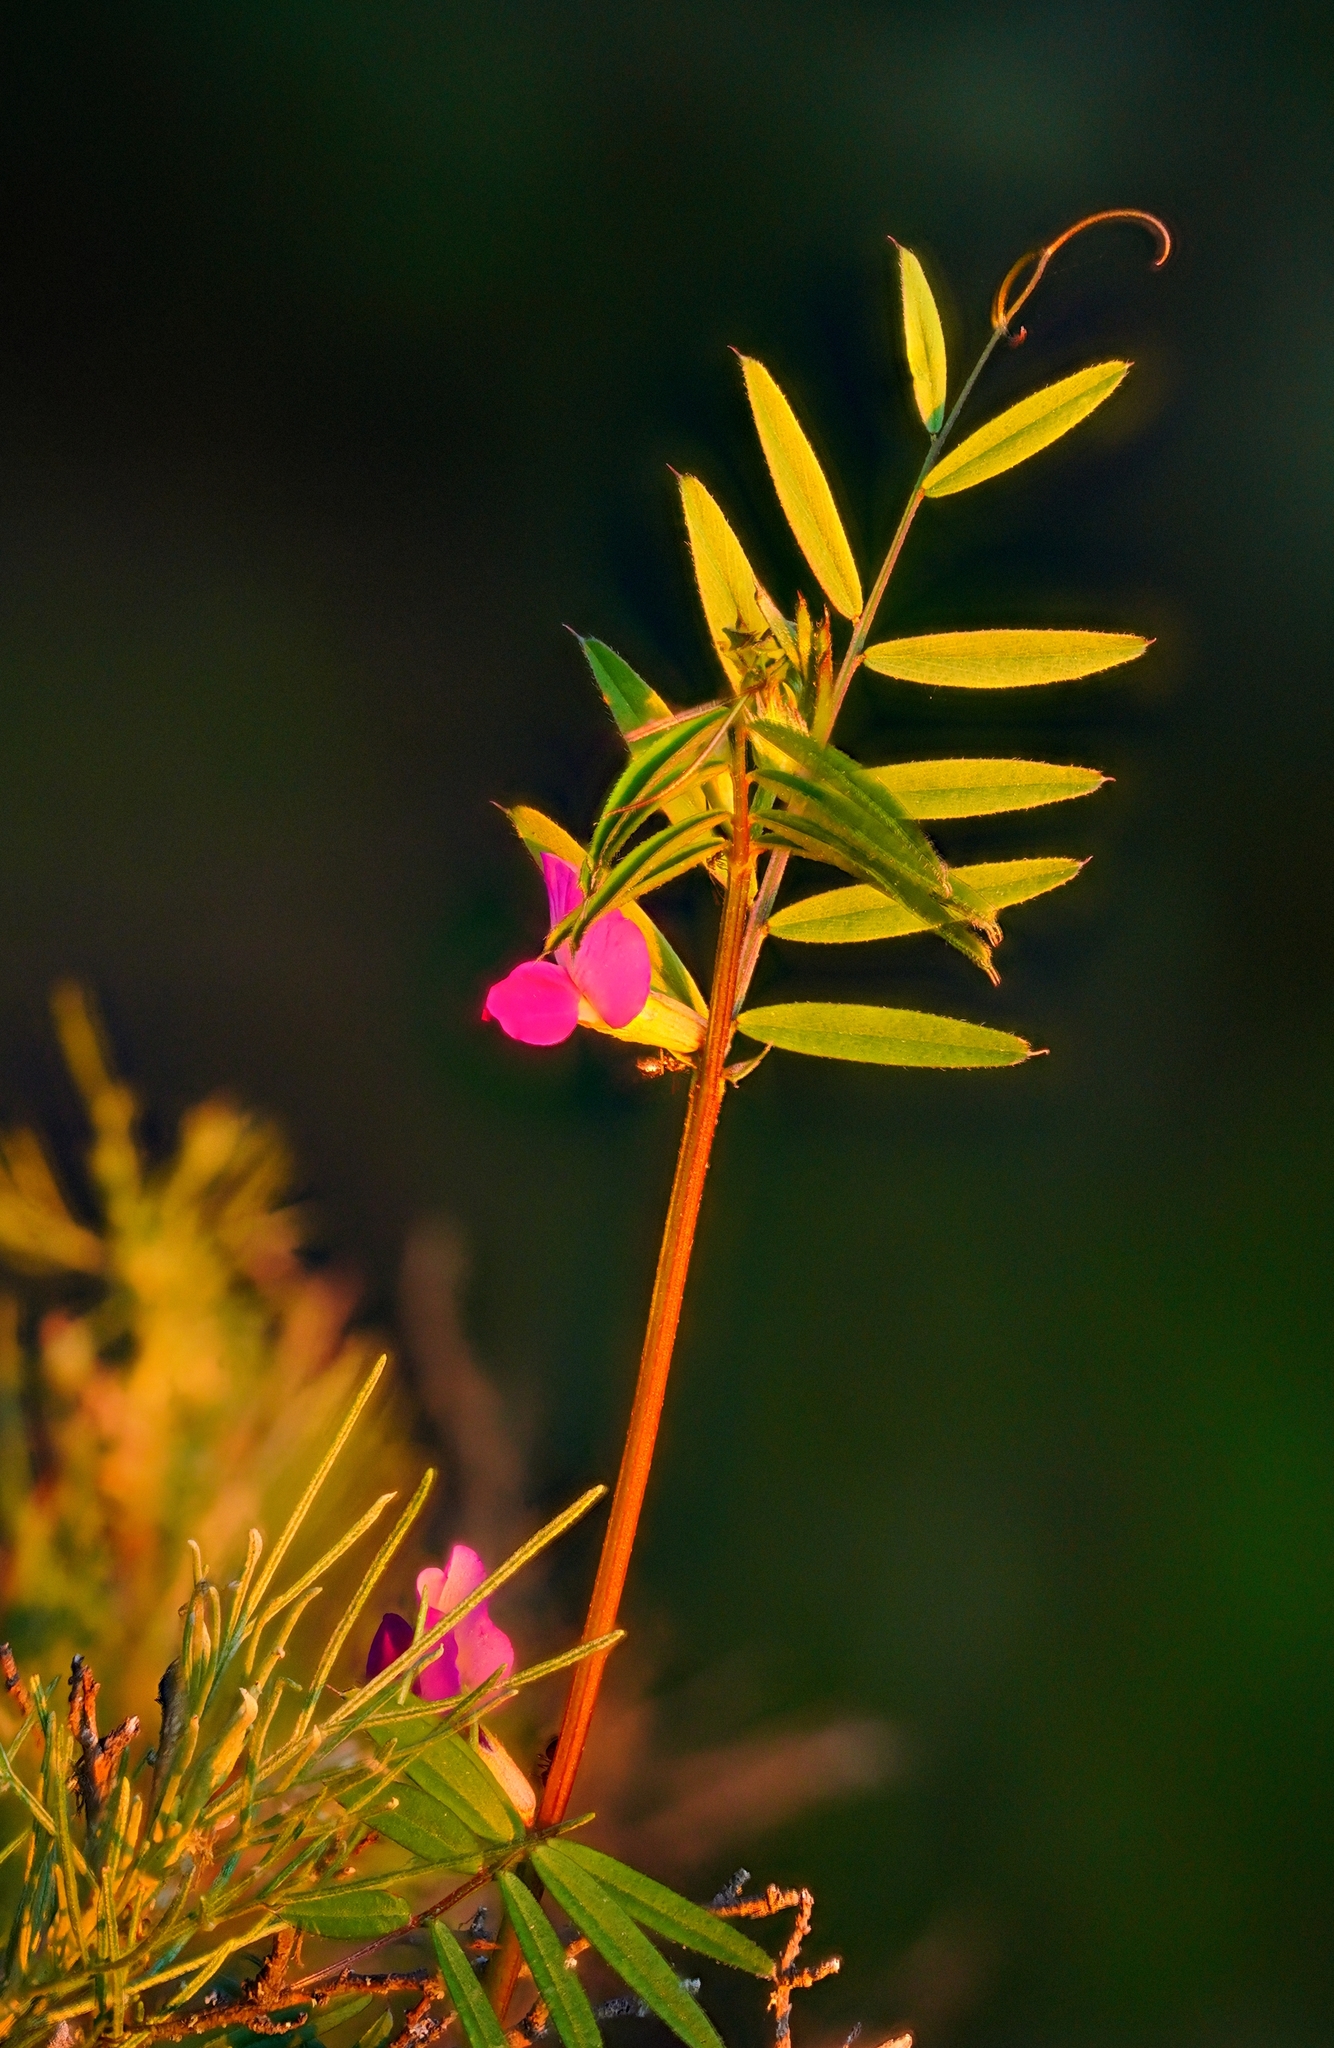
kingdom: Plantae
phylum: Tracheophyta
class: Magnoliopsida
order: Fabales
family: Fabaceae
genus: Vicia
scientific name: Vicia sativa
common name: Garden vetch
